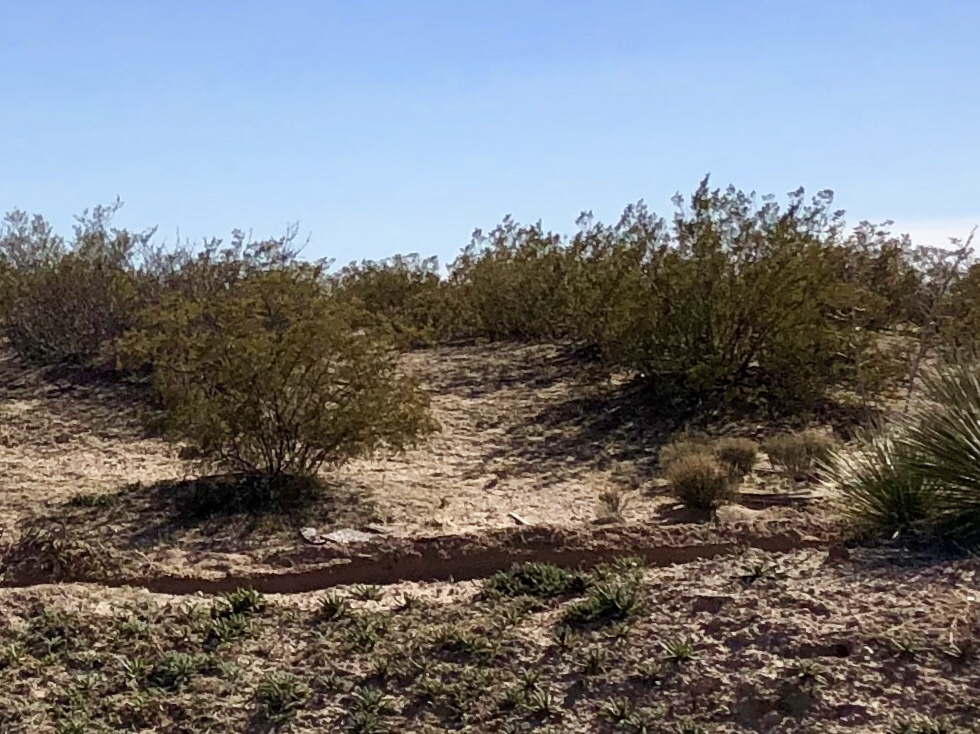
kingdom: Plantae
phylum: Tracheophyta
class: Magnoliopsida
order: Zygophyllales
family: Zygophyllaceae
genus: Larrea
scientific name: Larrea tridentata
